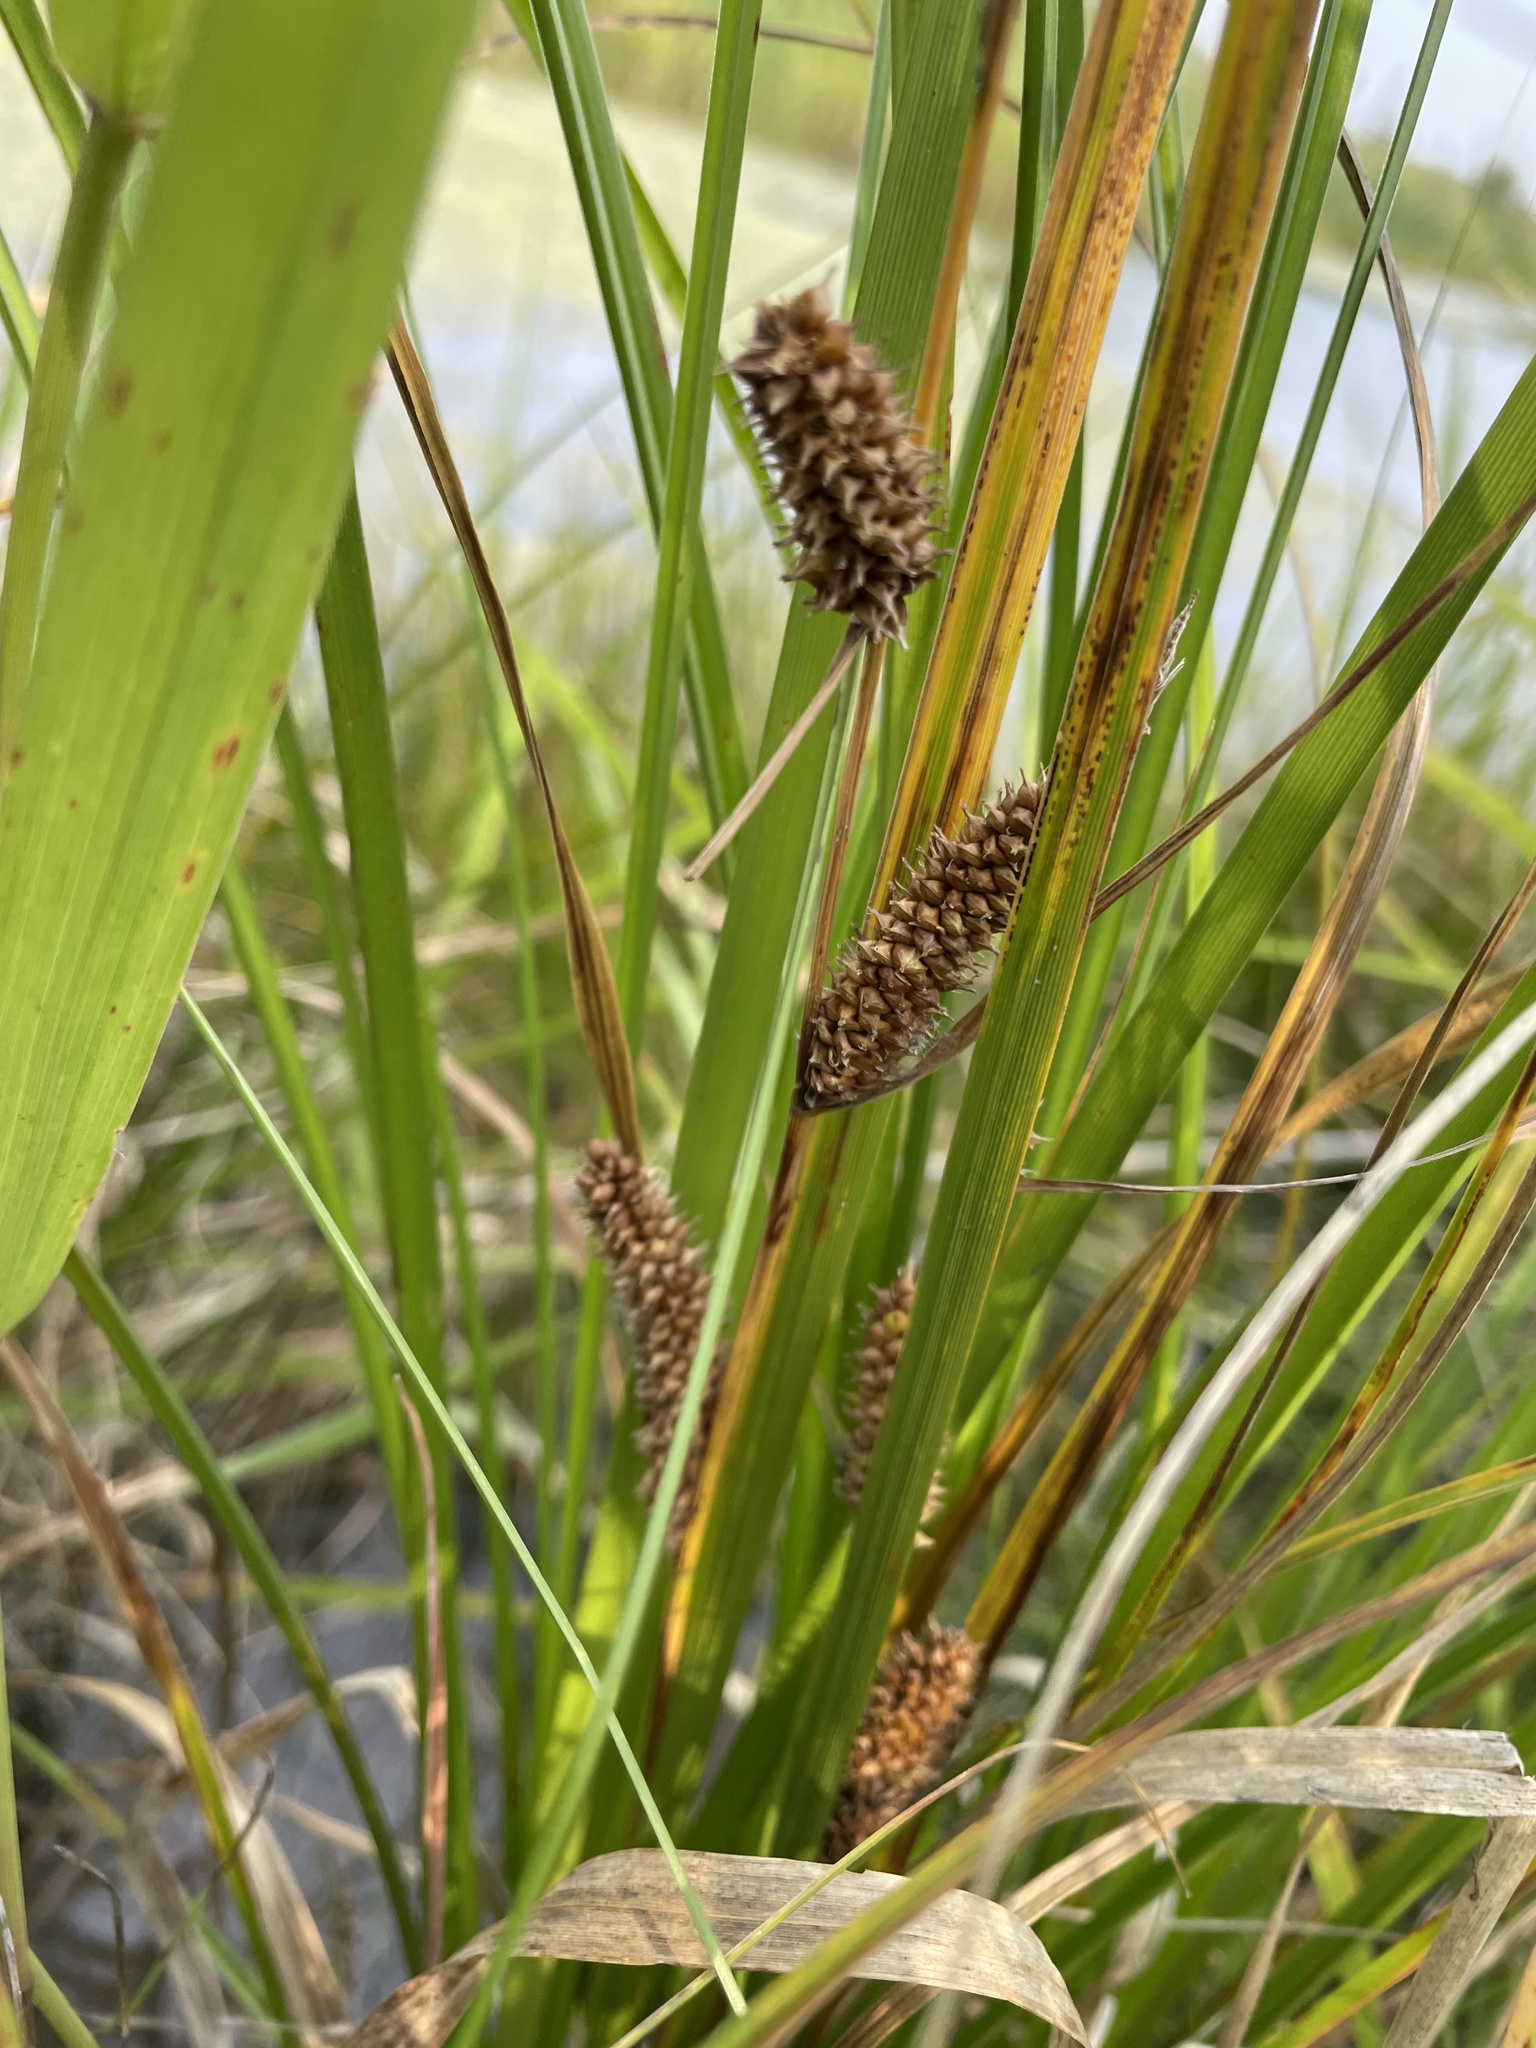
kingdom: Plantae
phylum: Tracheophyta
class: Liliopsida
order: Poales
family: Cyperaceae
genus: Carex
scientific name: Carex utriculata
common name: Beaked sedge
